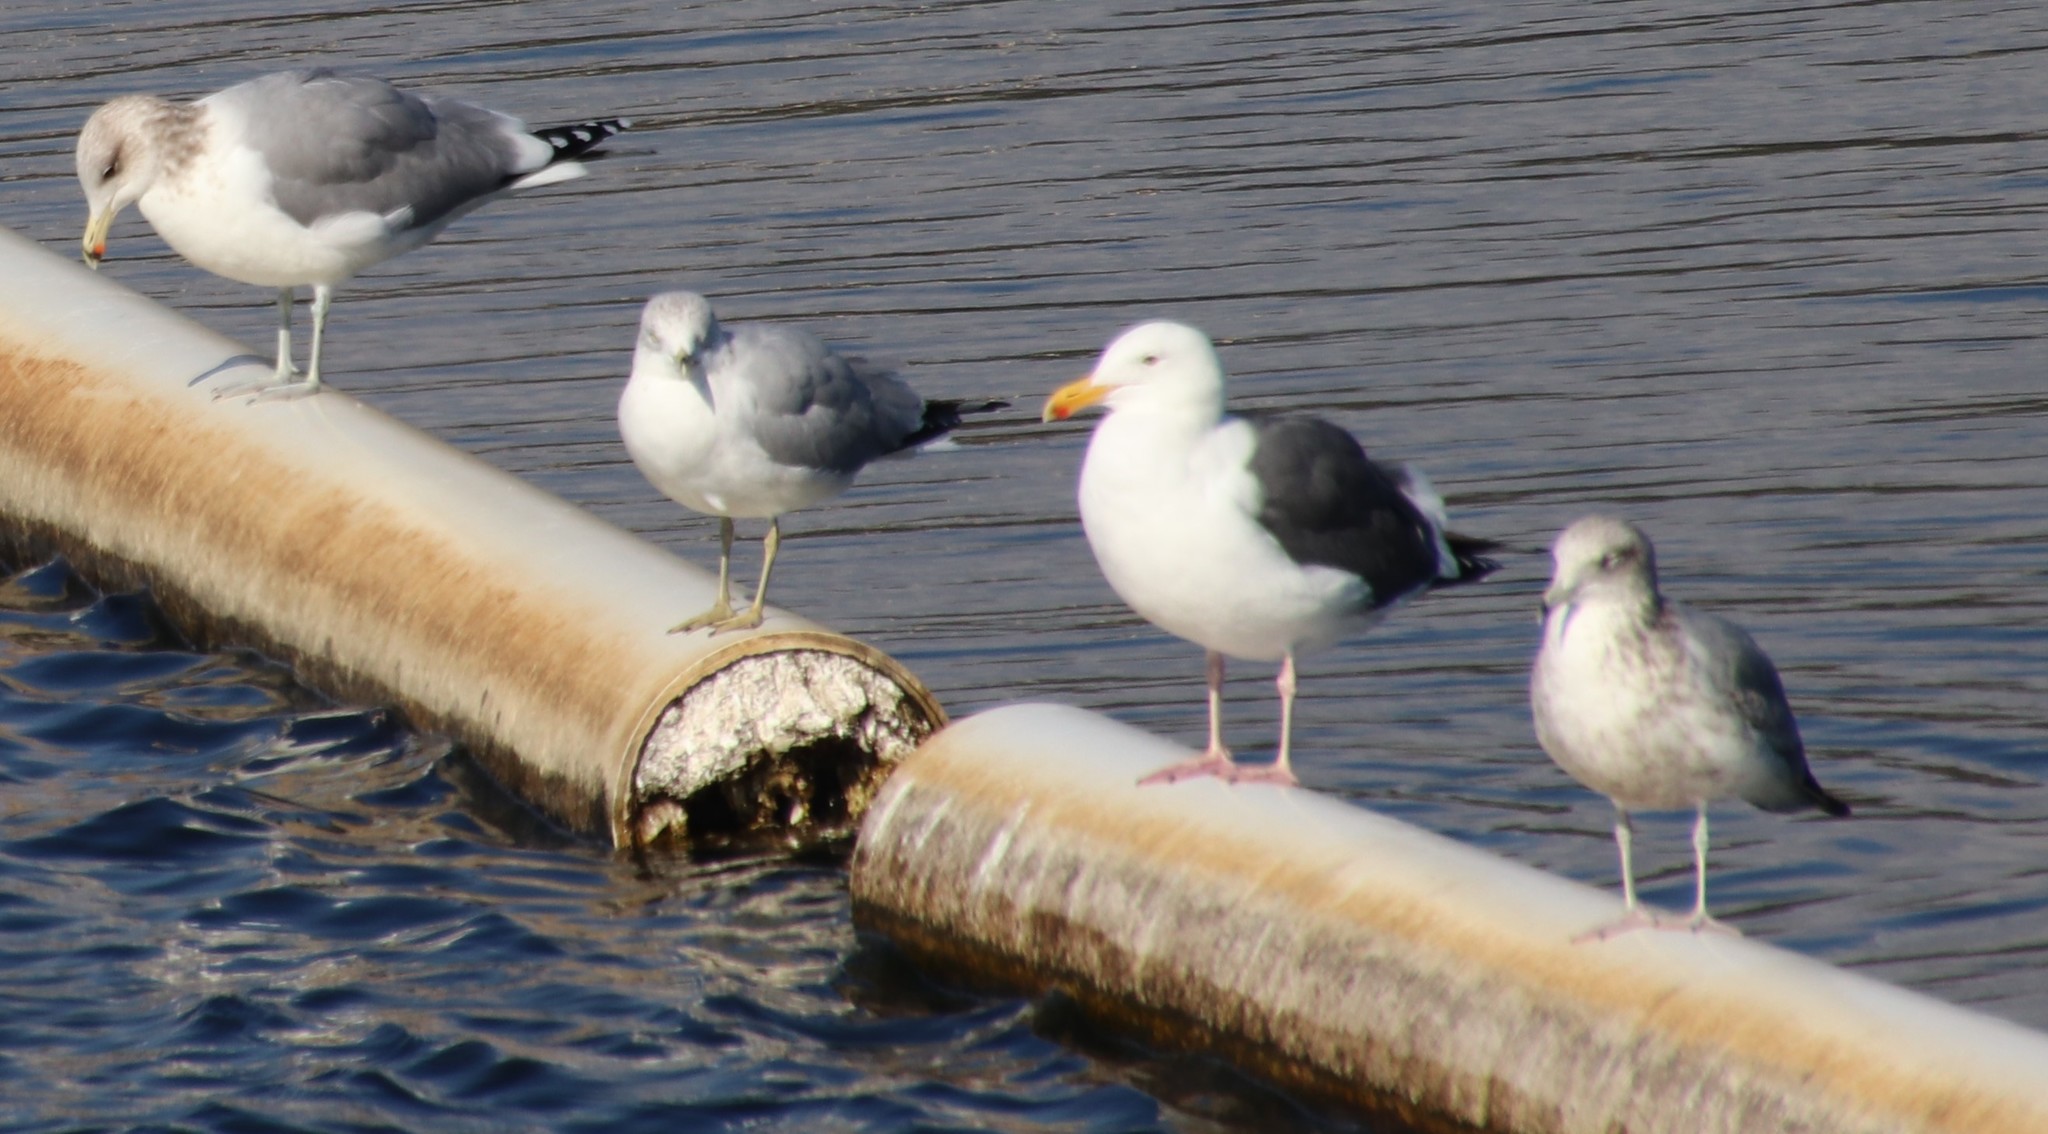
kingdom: Animalia
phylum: Chordata
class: Aves
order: Charadriiformes
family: Laridae
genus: Larus
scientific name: Larus occidentalis
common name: Western gull
